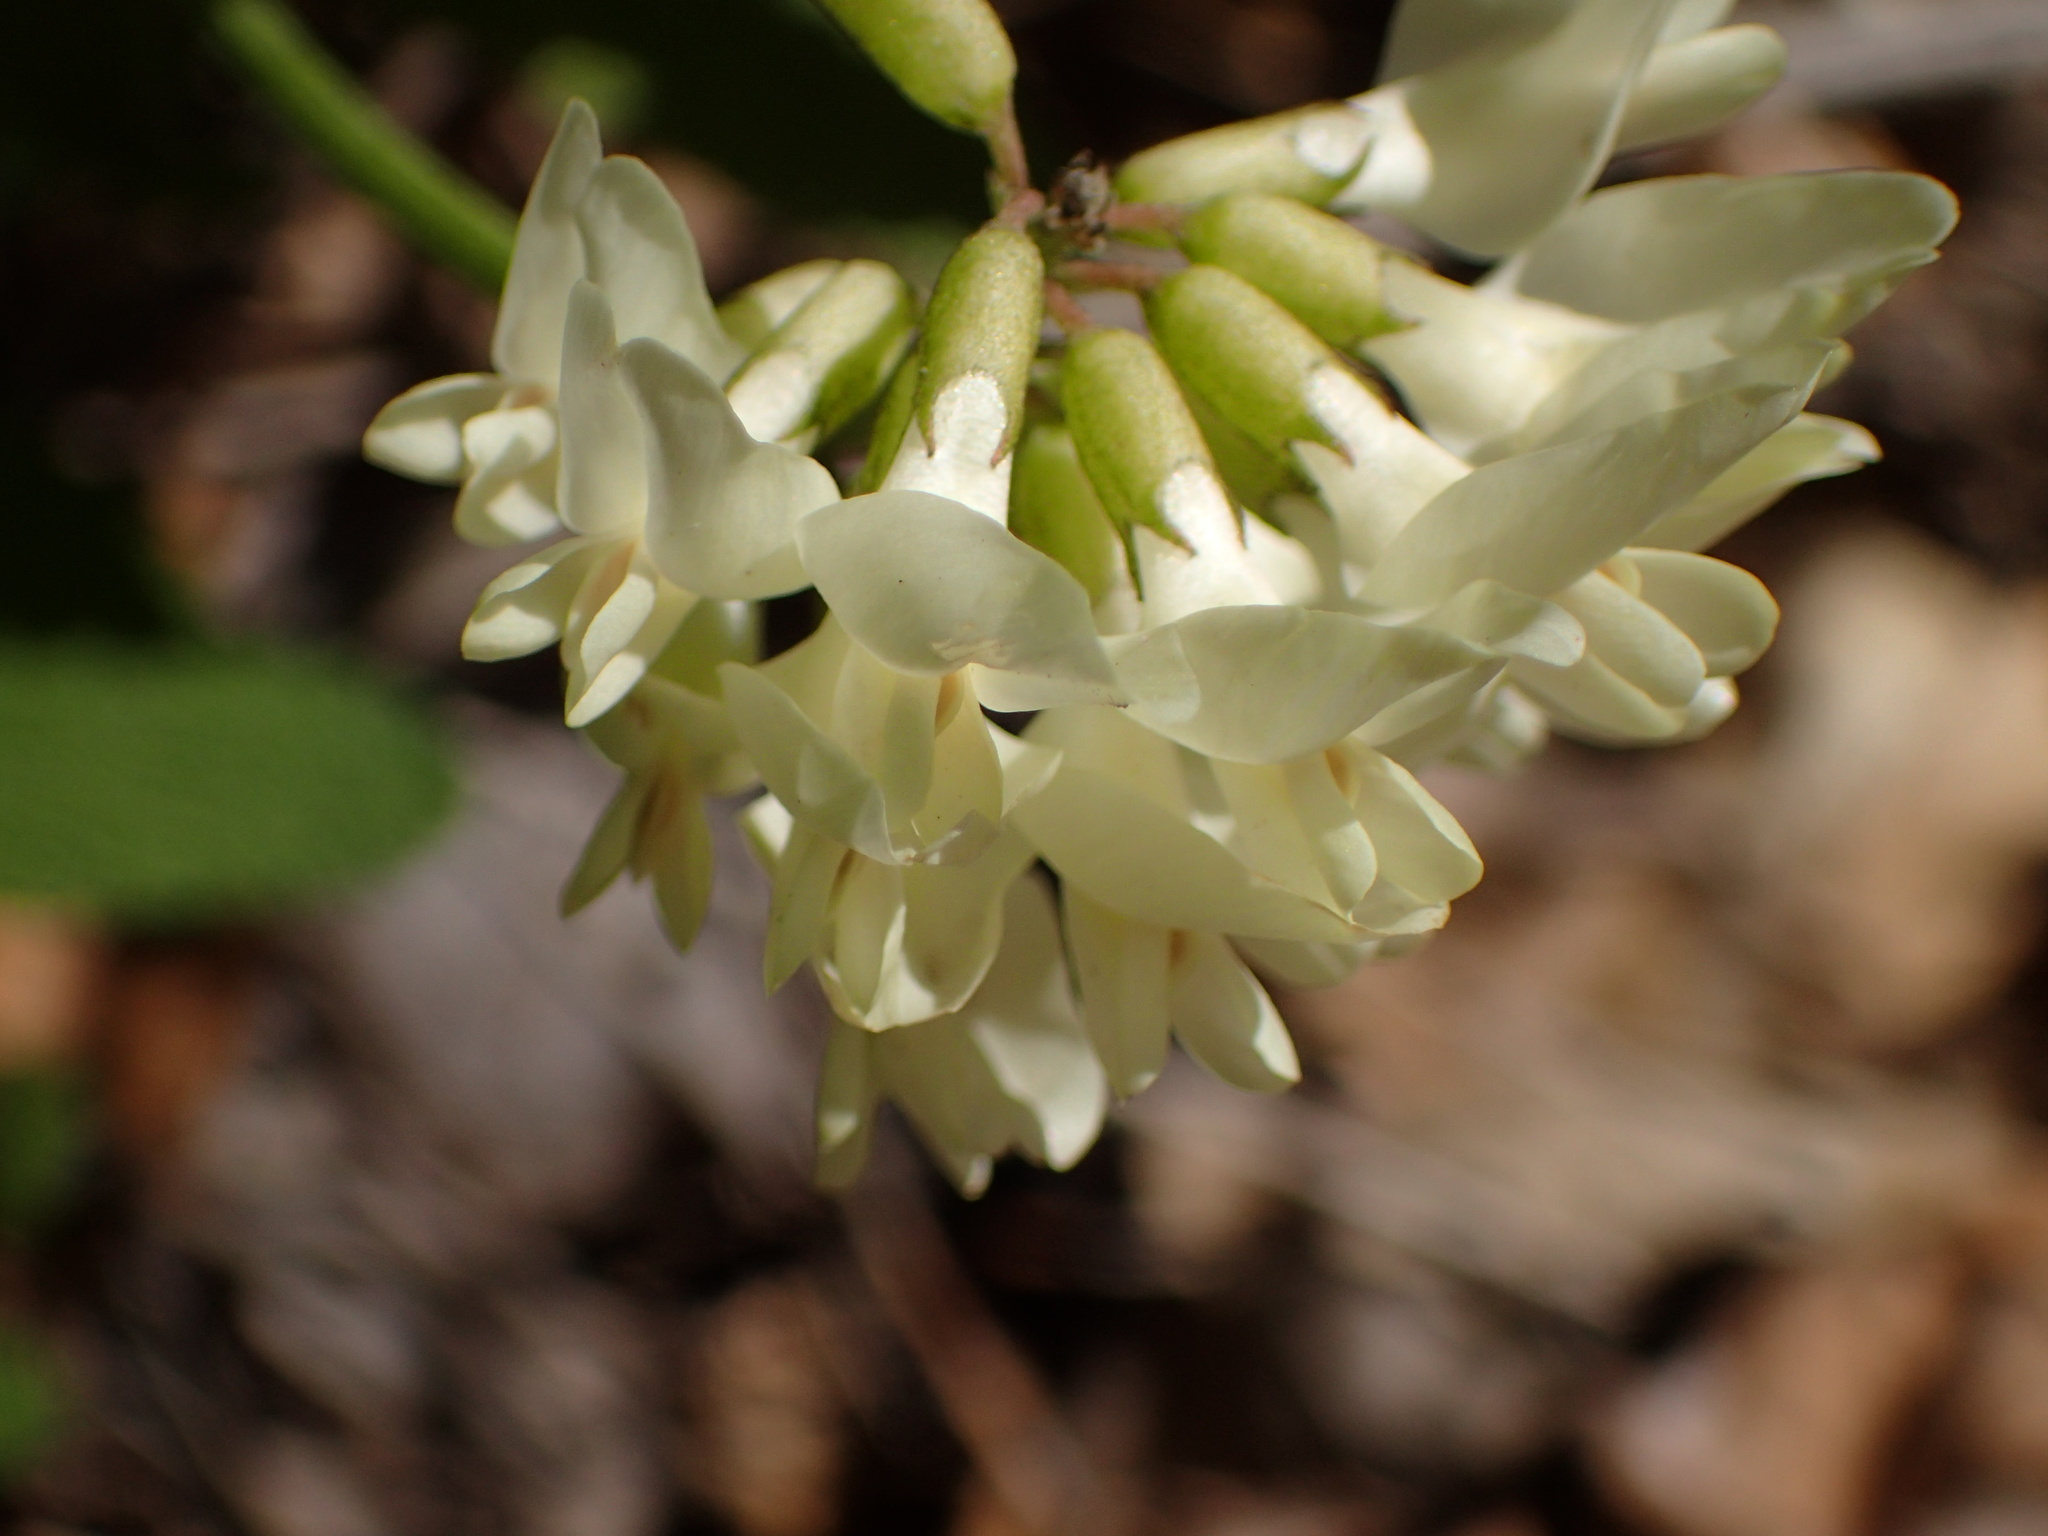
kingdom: Plantae
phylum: Tracheophyta
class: Magnoliopsida
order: Fabales
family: Fabaceae
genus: Astragalus
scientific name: Astragalus trichopodus
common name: Santa barbara milk-vetch
